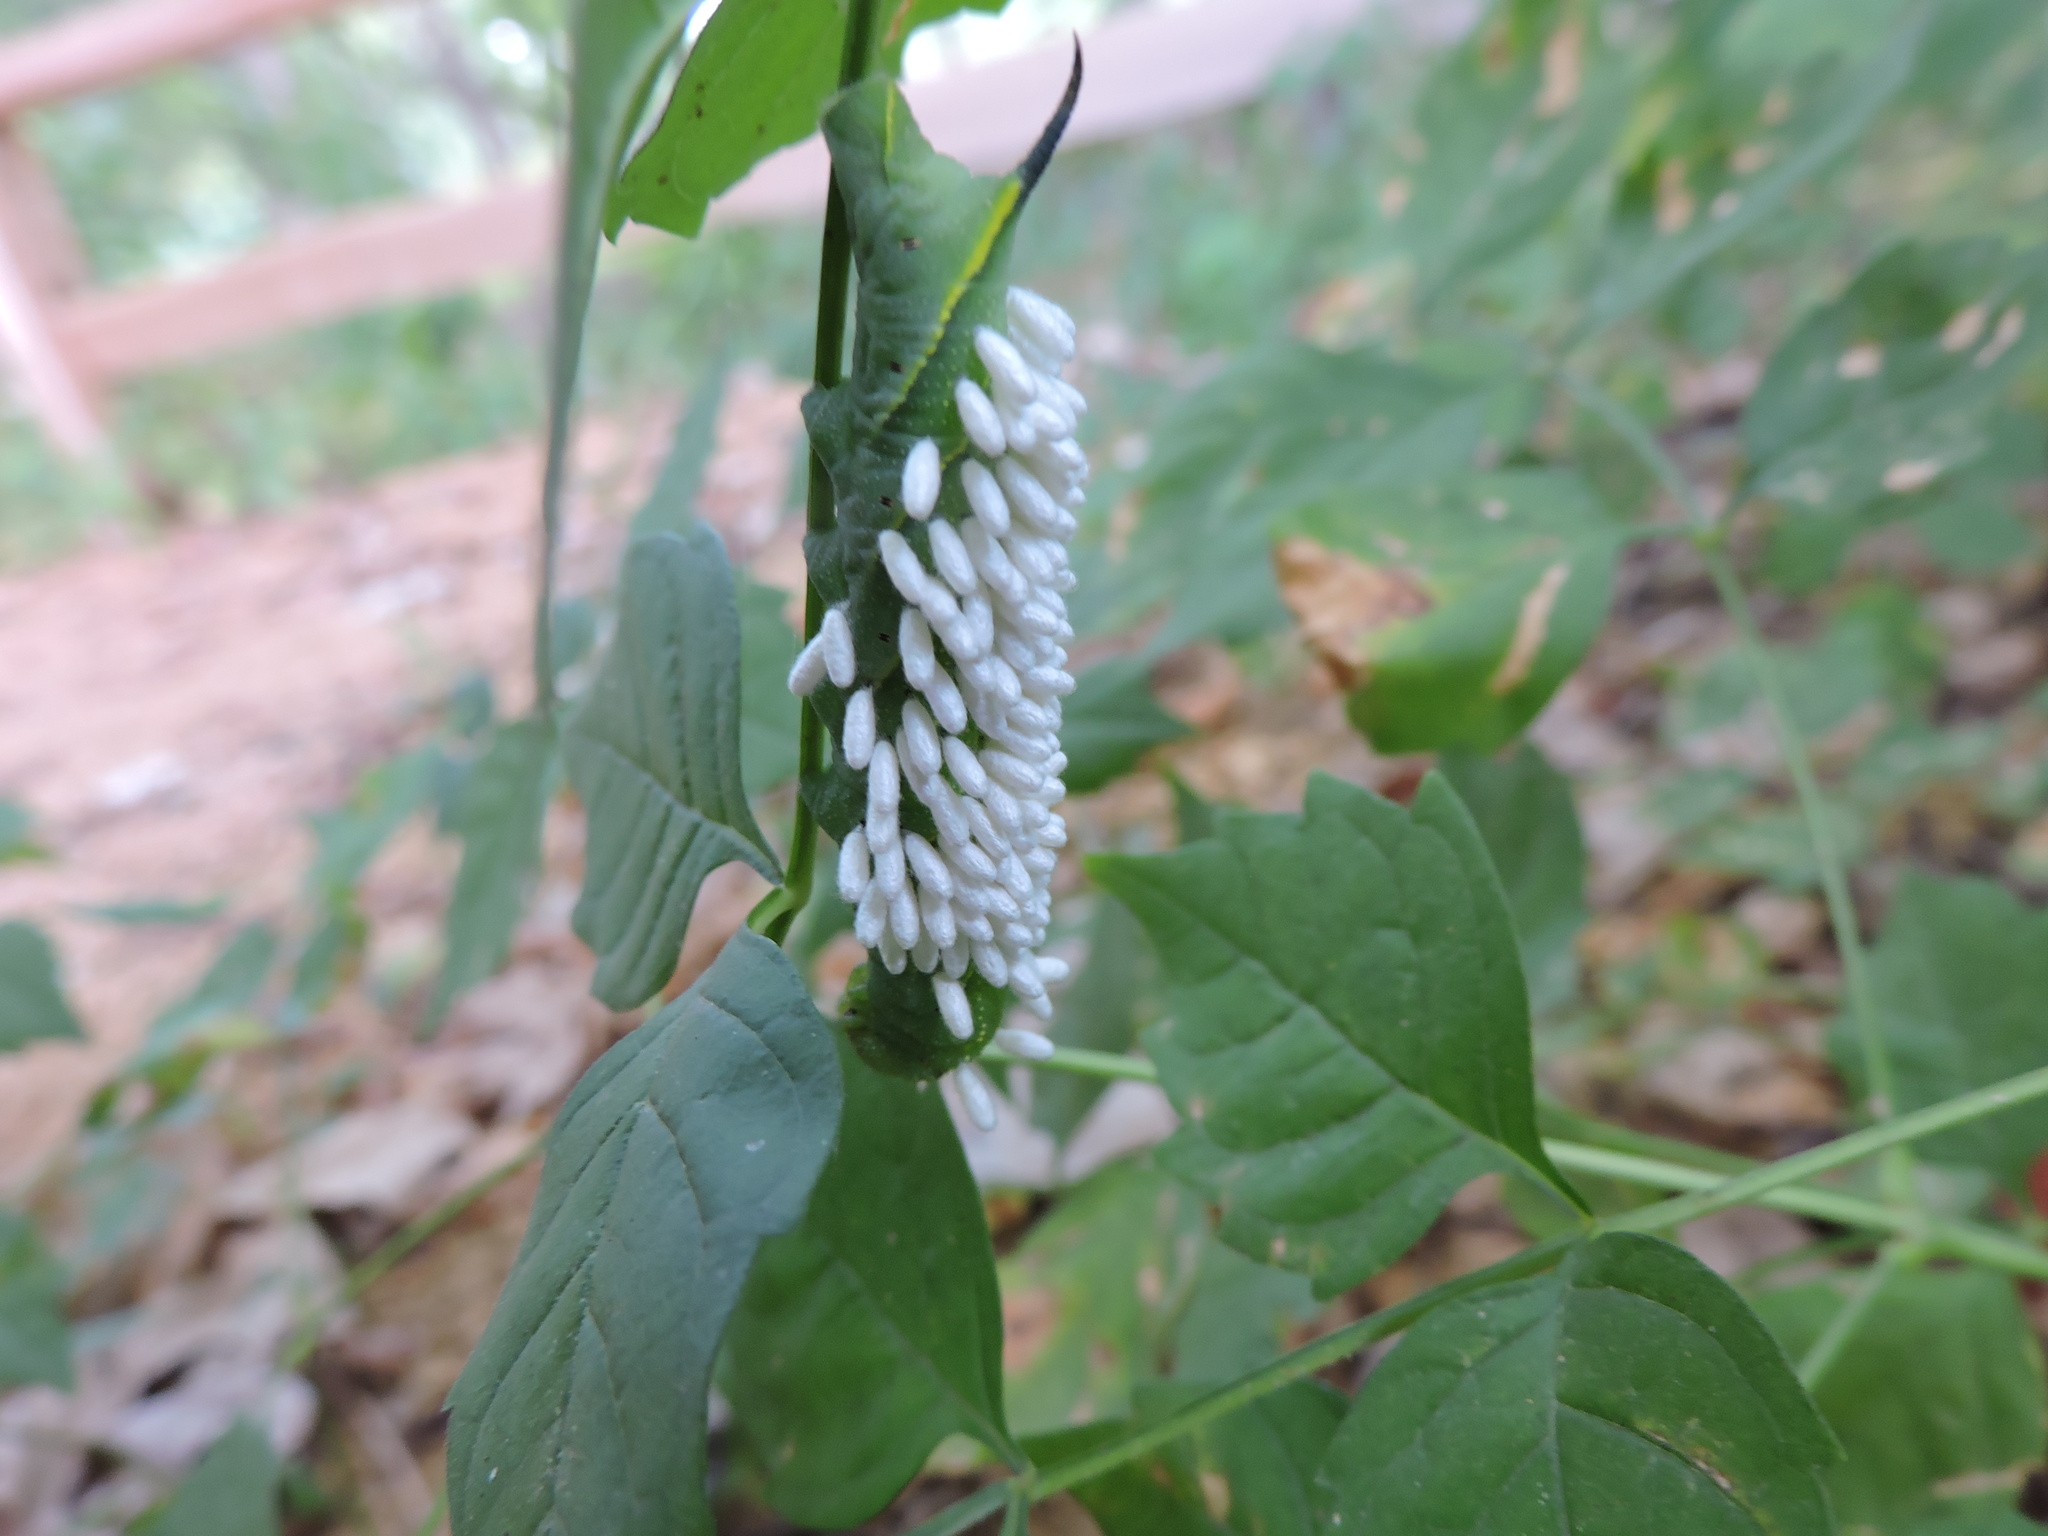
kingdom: Animalia
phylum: Arthropoda
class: Insecta
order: Hymenoptera
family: Braconidae
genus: Cotesia
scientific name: Cotesia congregata
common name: Hornworm parasitoid wasp
